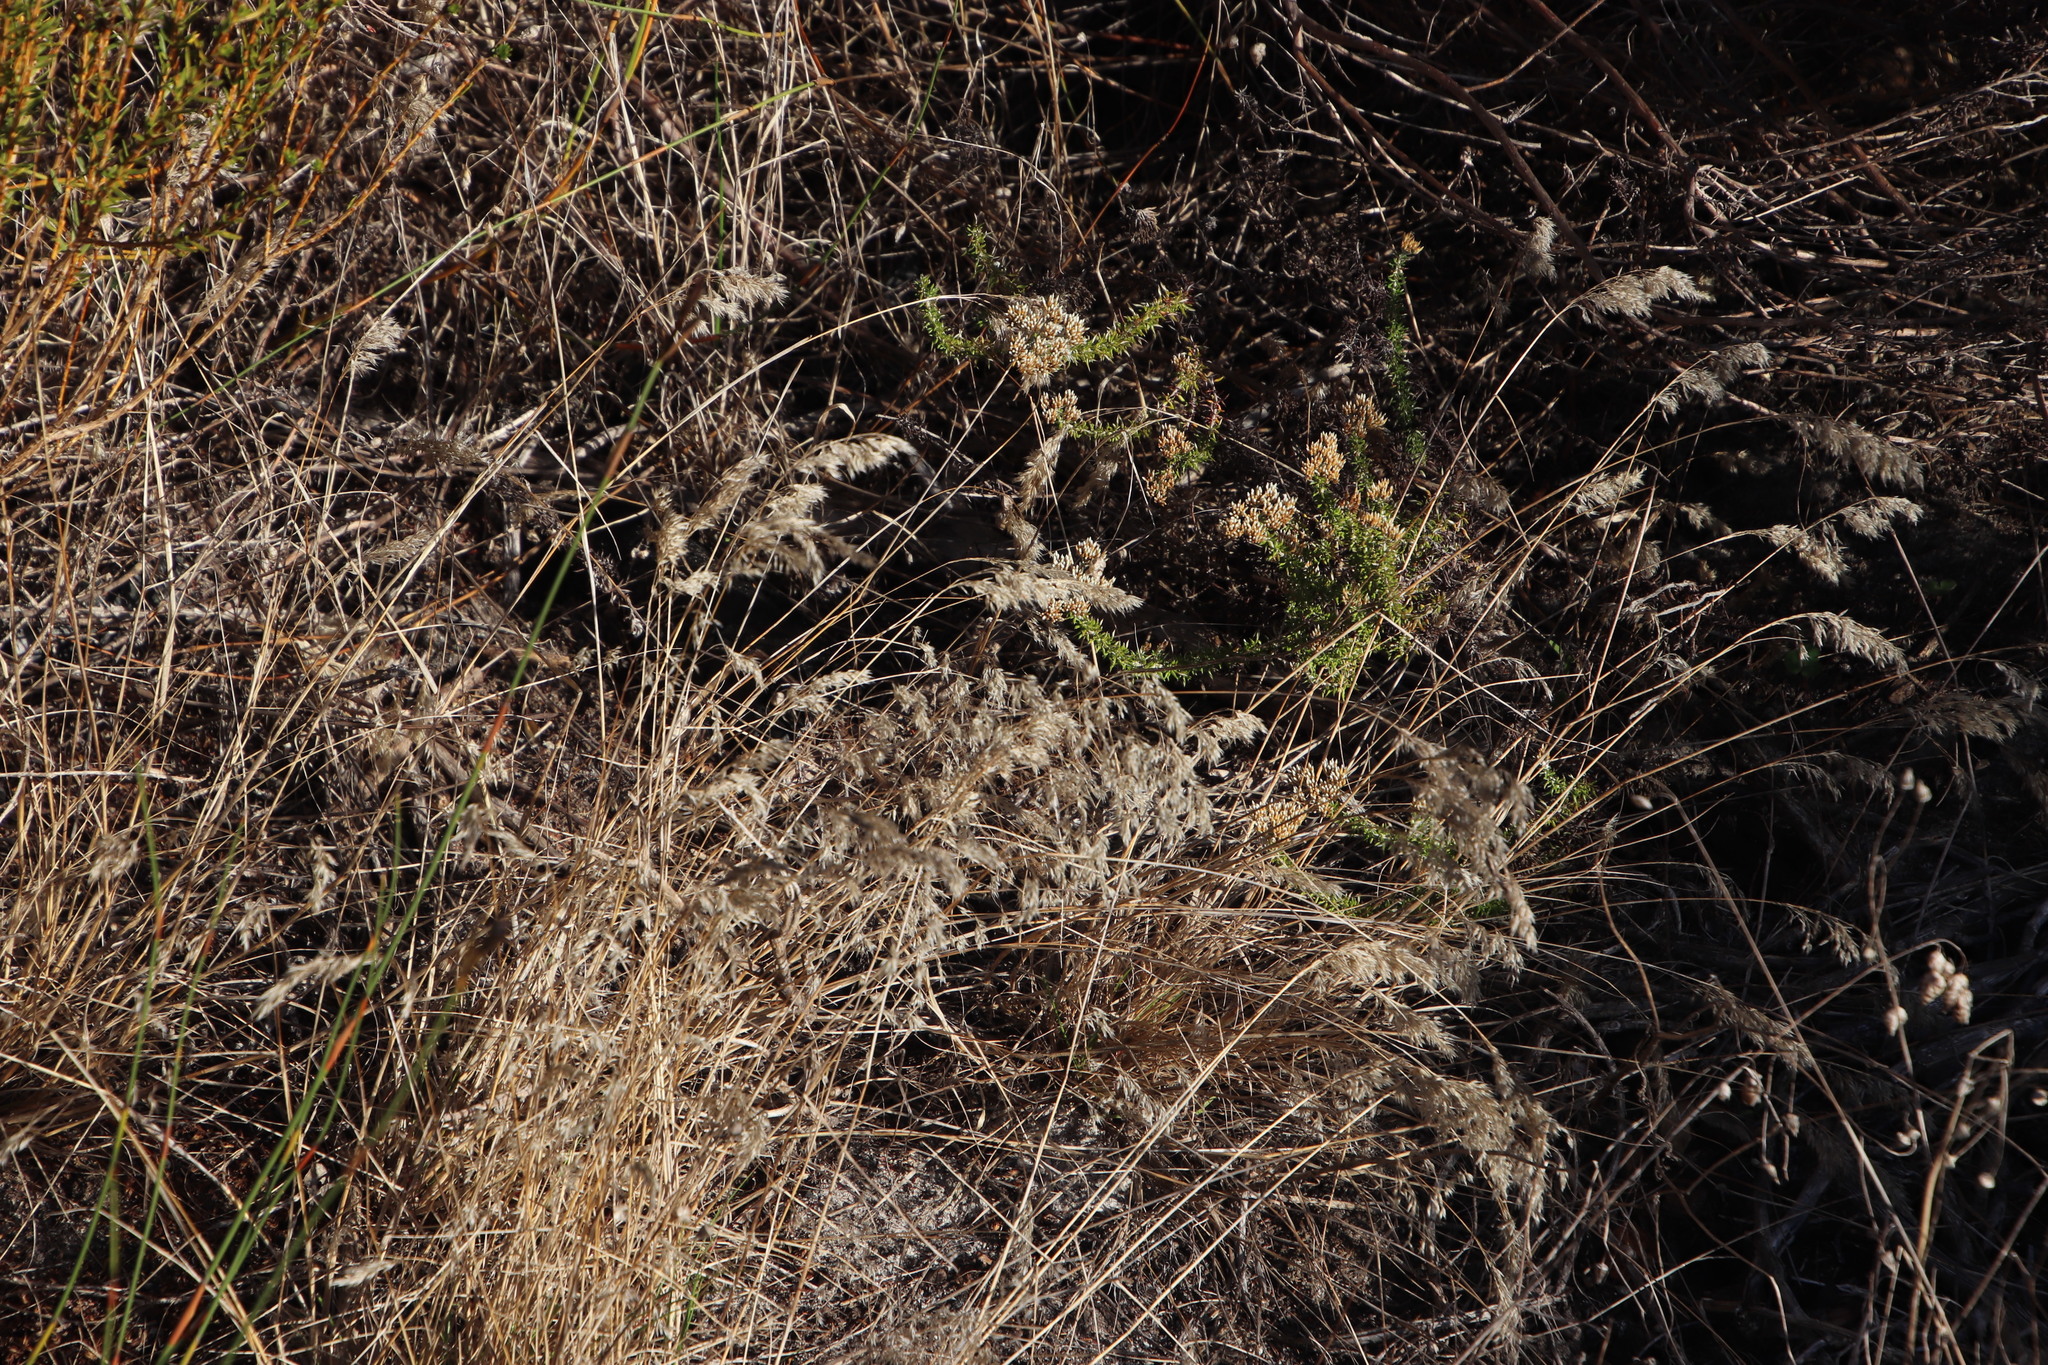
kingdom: Plantae
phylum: Tracheophyta
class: Liliopsida
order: Poales
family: Poaceae
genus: Pentameris
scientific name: Pentameris pallida
